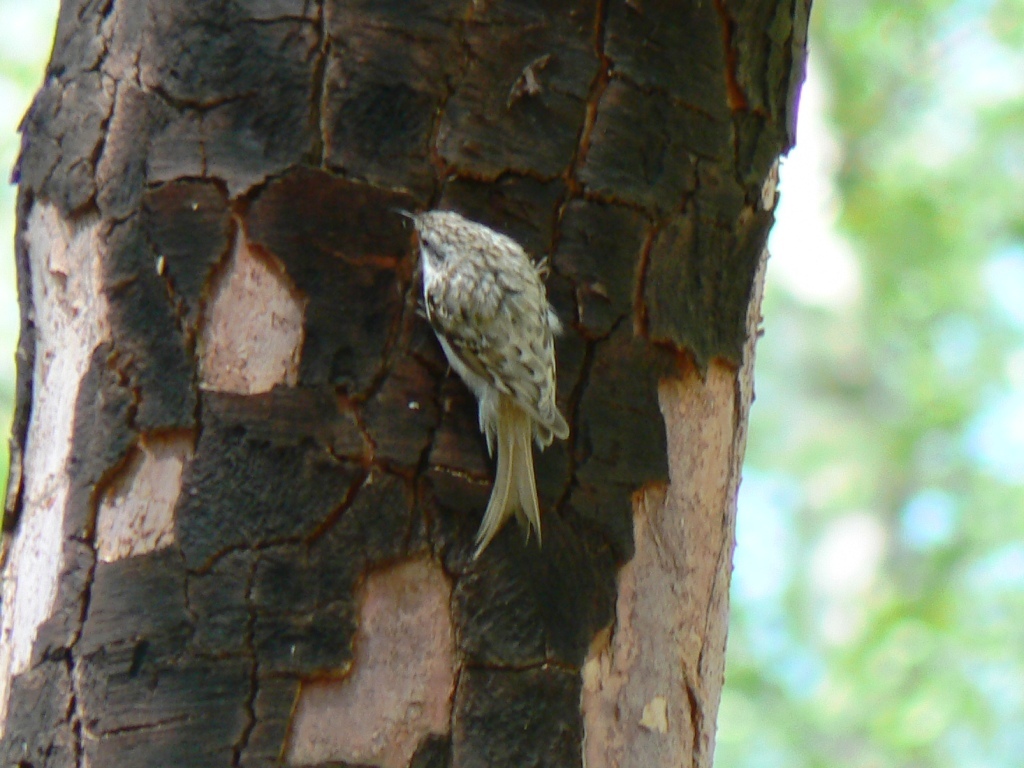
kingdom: Animalia
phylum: Chordata
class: Aves
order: Passeriformes
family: Certhiidae
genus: Certhia
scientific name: Certhia familiaris
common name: Eurasian treecreeper
